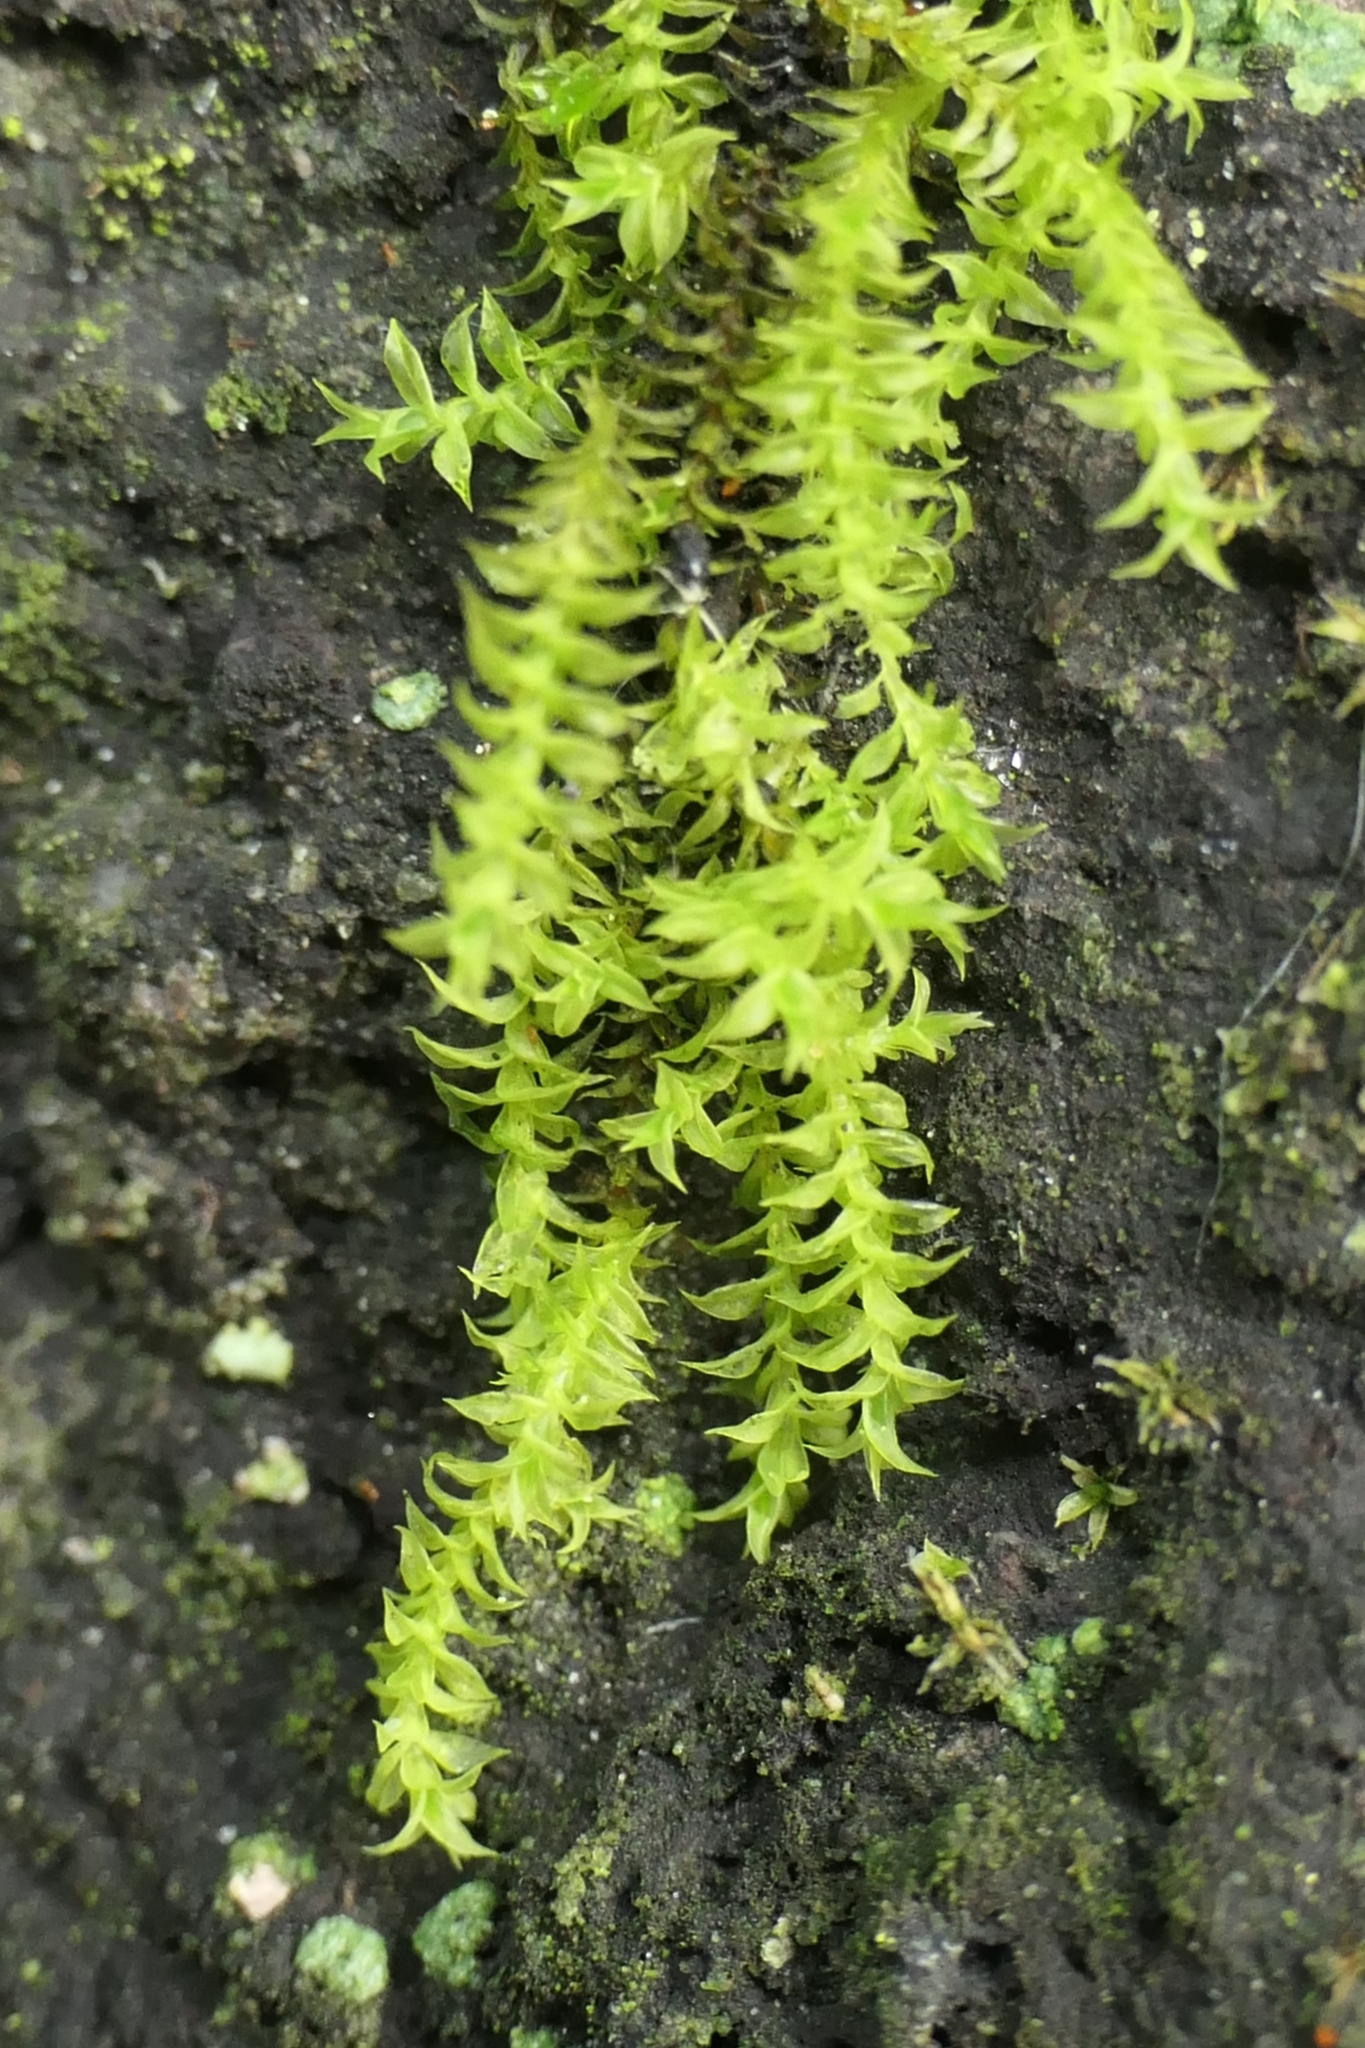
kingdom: Plantae
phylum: Bryophyta
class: Bryopsida
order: Pottiales
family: Pottiaceae
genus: Triquetrella
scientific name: Triquetrella papillata
